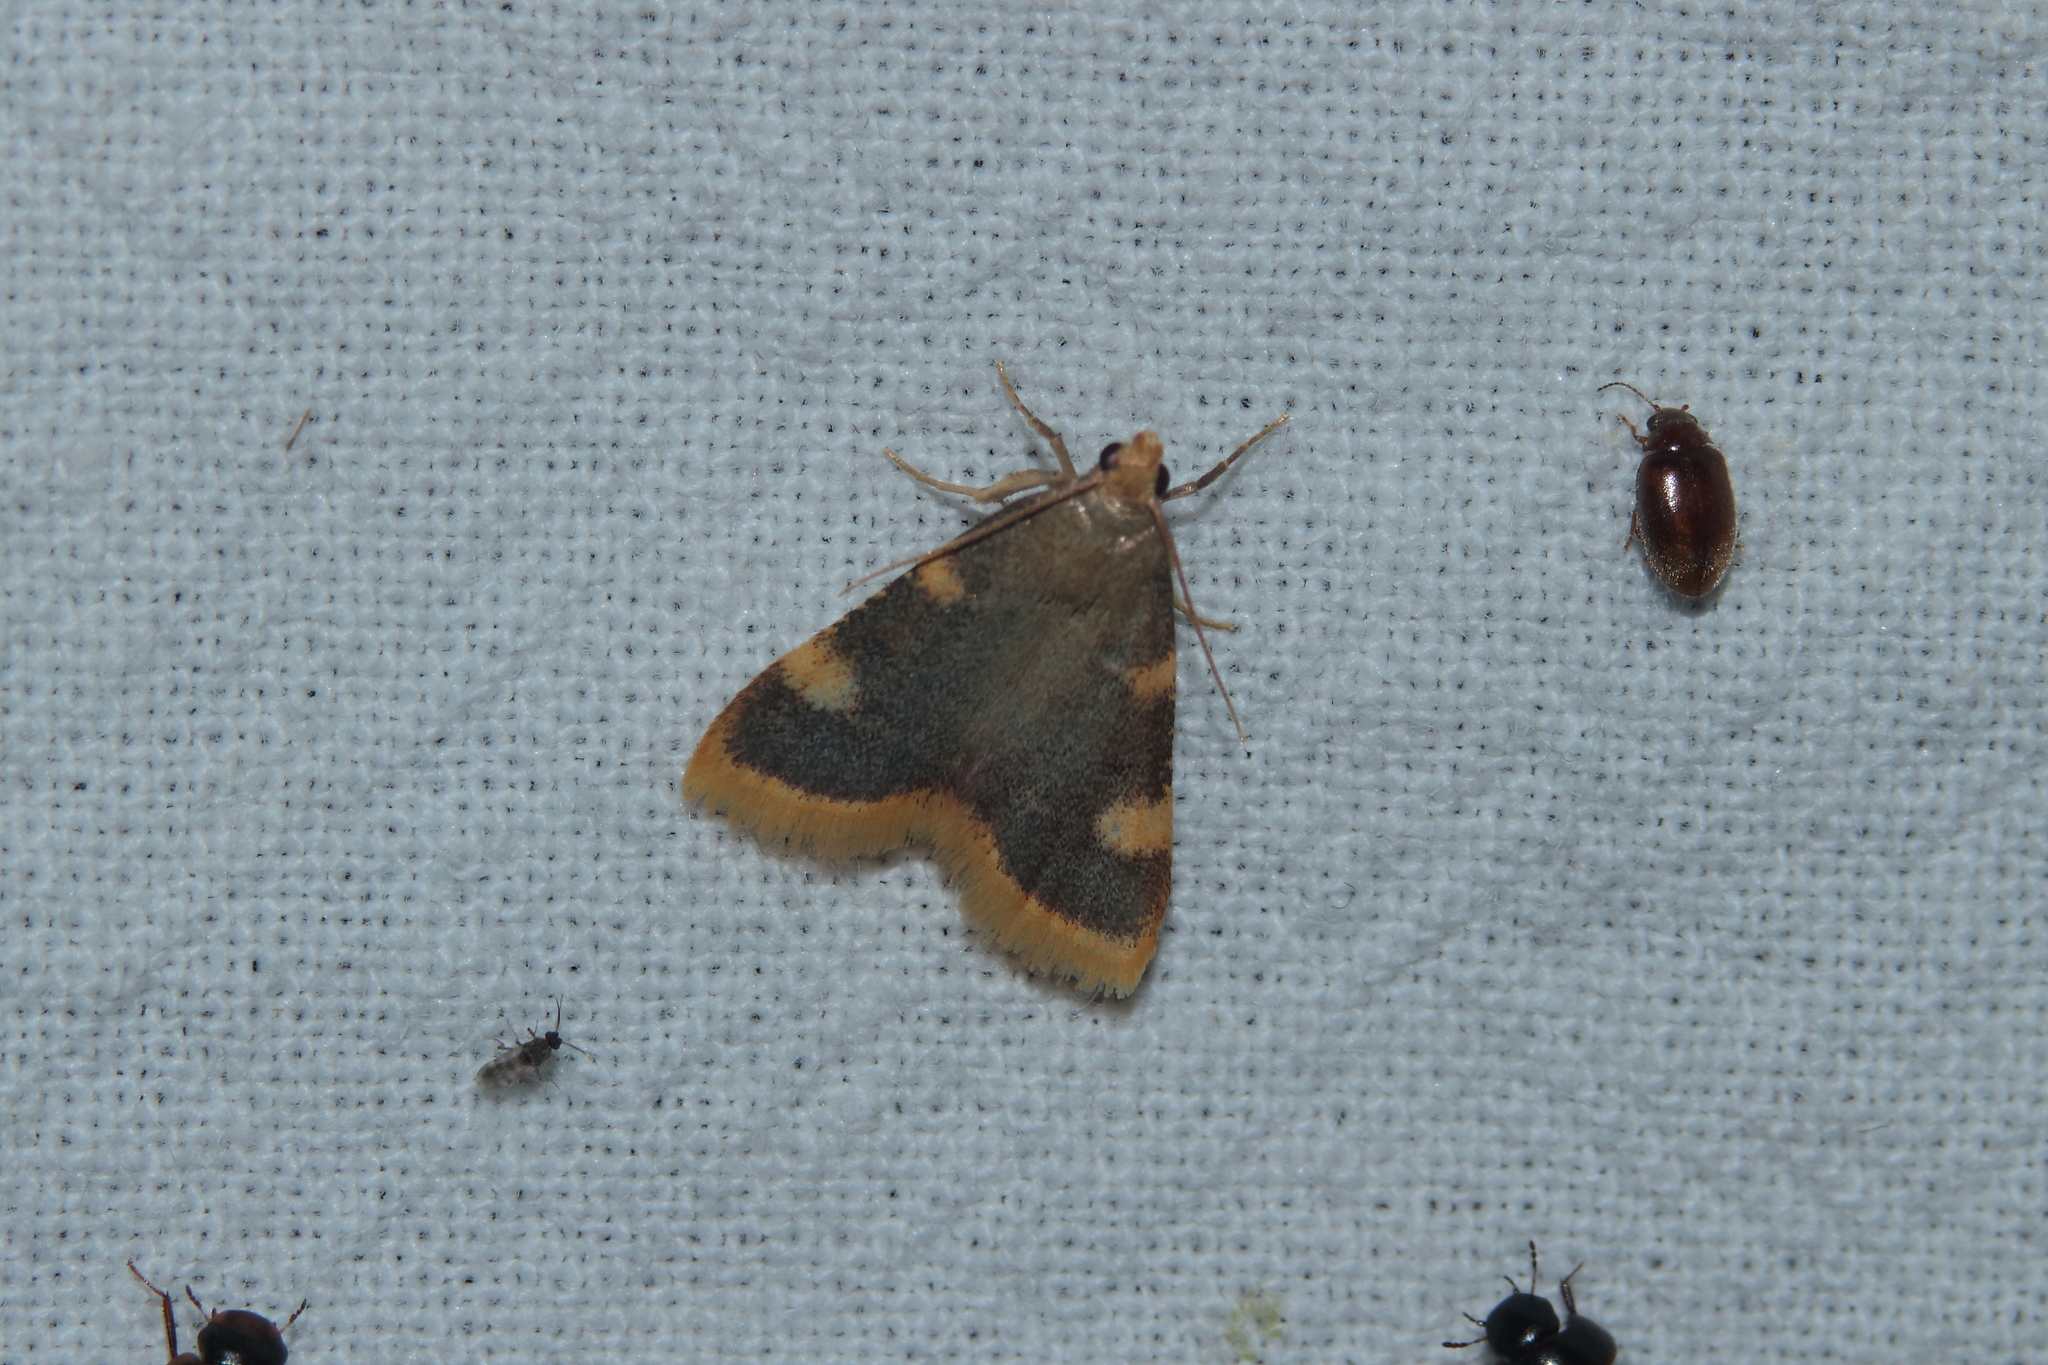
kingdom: Animalia
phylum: Arthropoda
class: Insecta
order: Lepidoptera
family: Pyralidae
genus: Hypsopygia
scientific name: Hypsopygia costalis
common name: Gold triangle
